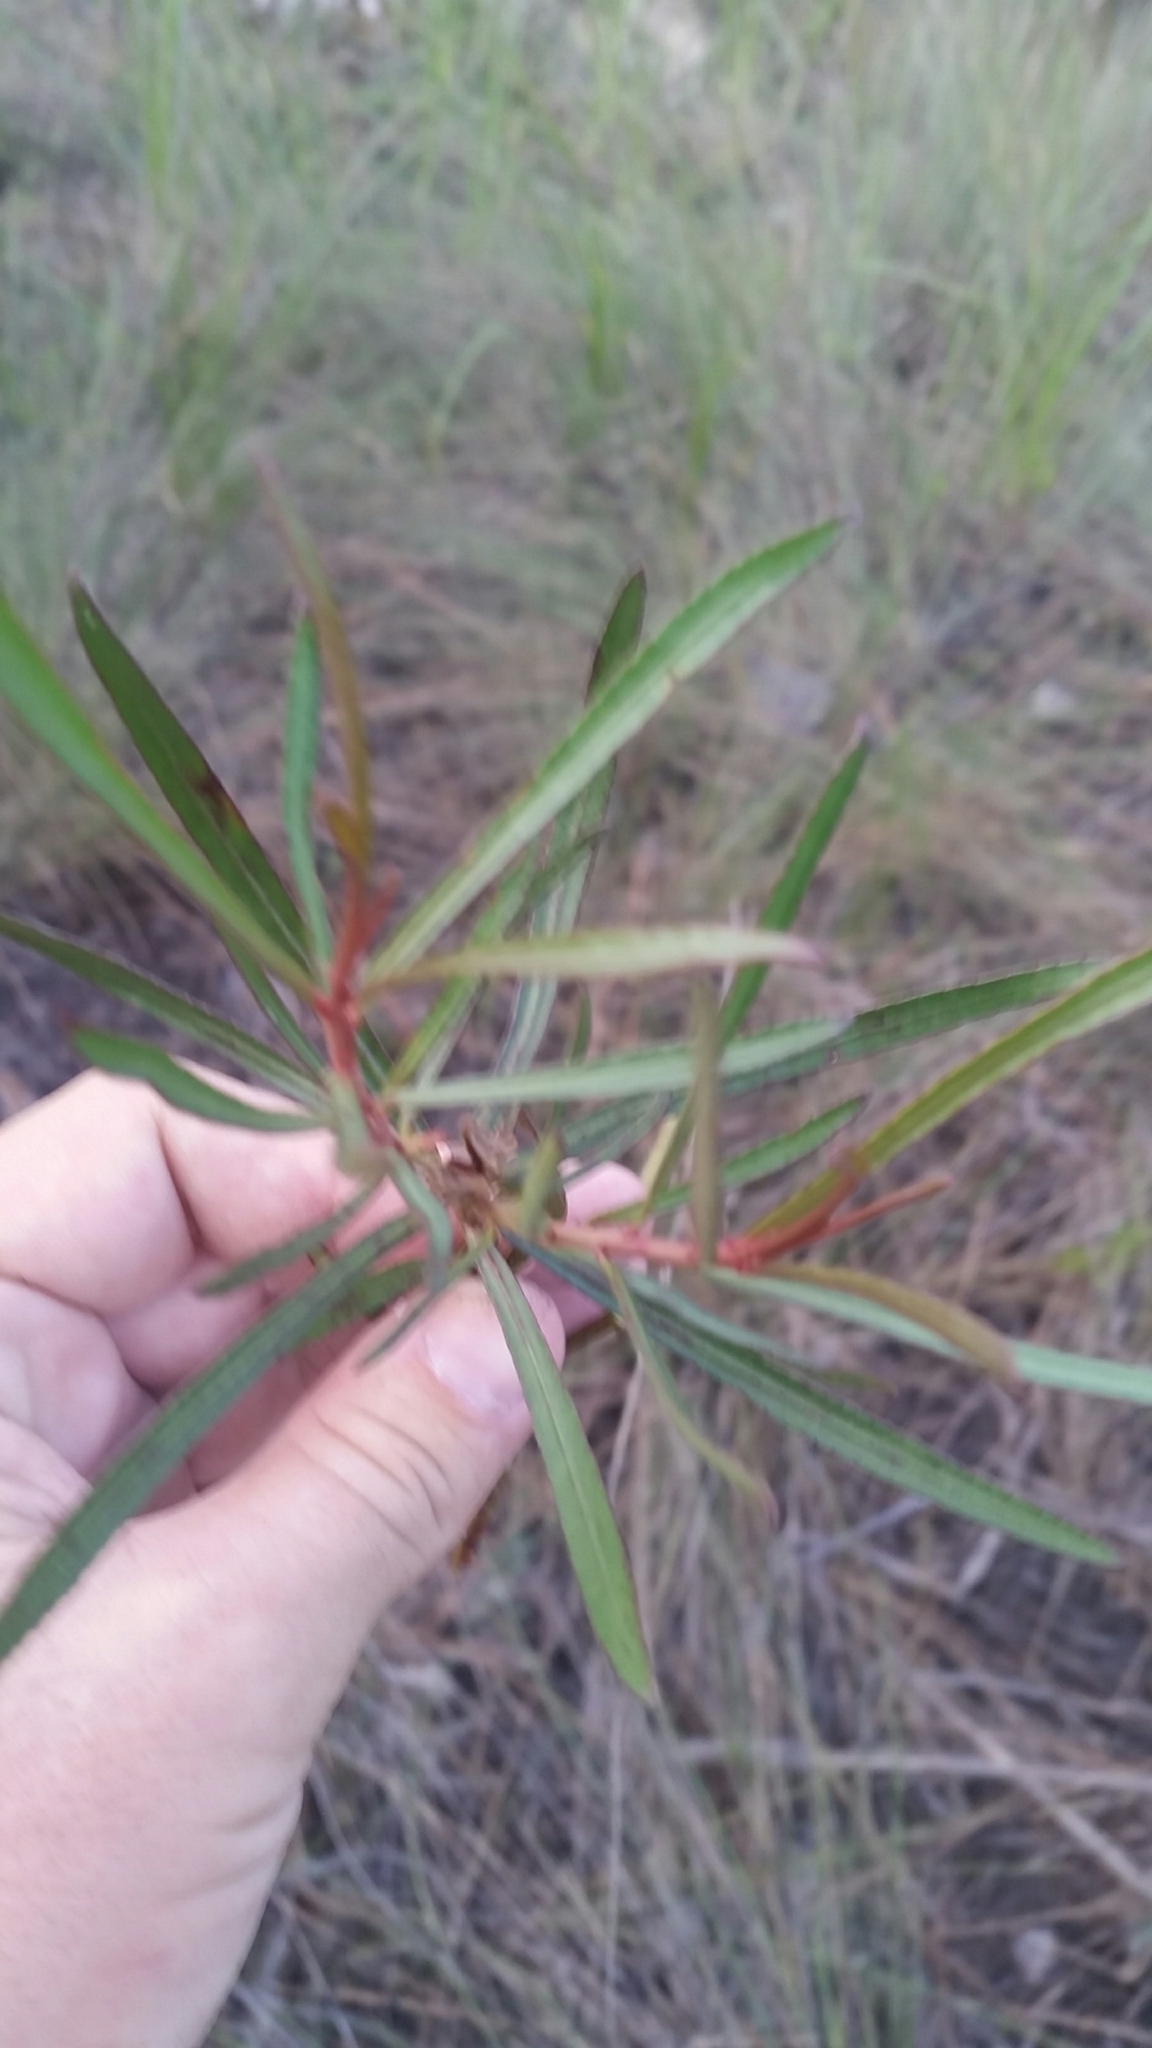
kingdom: Plantae
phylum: Tracheophyta
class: Magnoliopsida
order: Malpighiales
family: Euphorbiaceae
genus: Stillingia
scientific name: Stillingia sylvatica
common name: Queen's-delight
